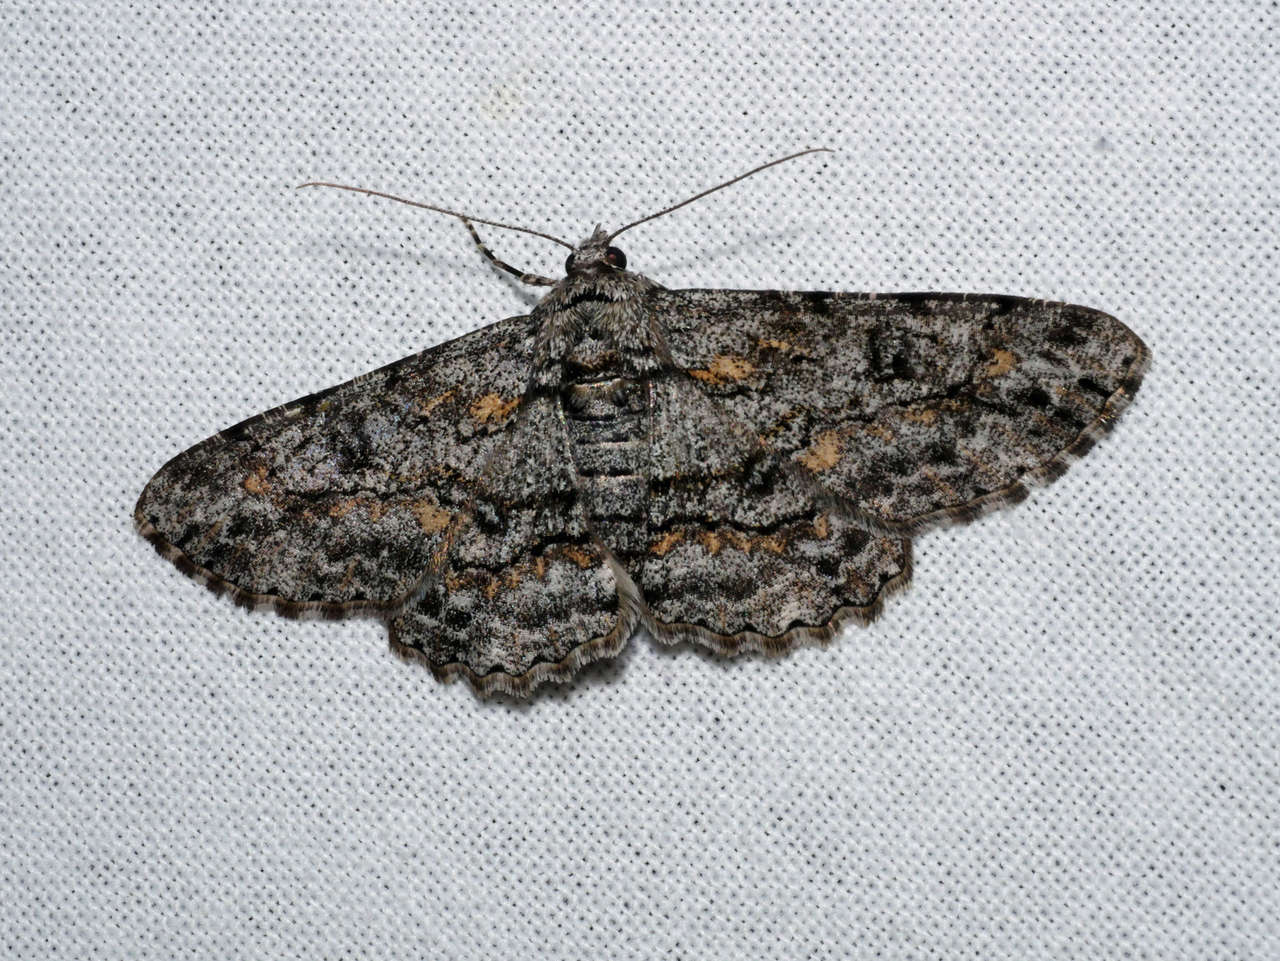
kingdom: Animalia
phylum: Arthropoda
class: Insecta
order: Lepidoptera
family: Geometridae
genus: Cleora
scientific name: Cleora
